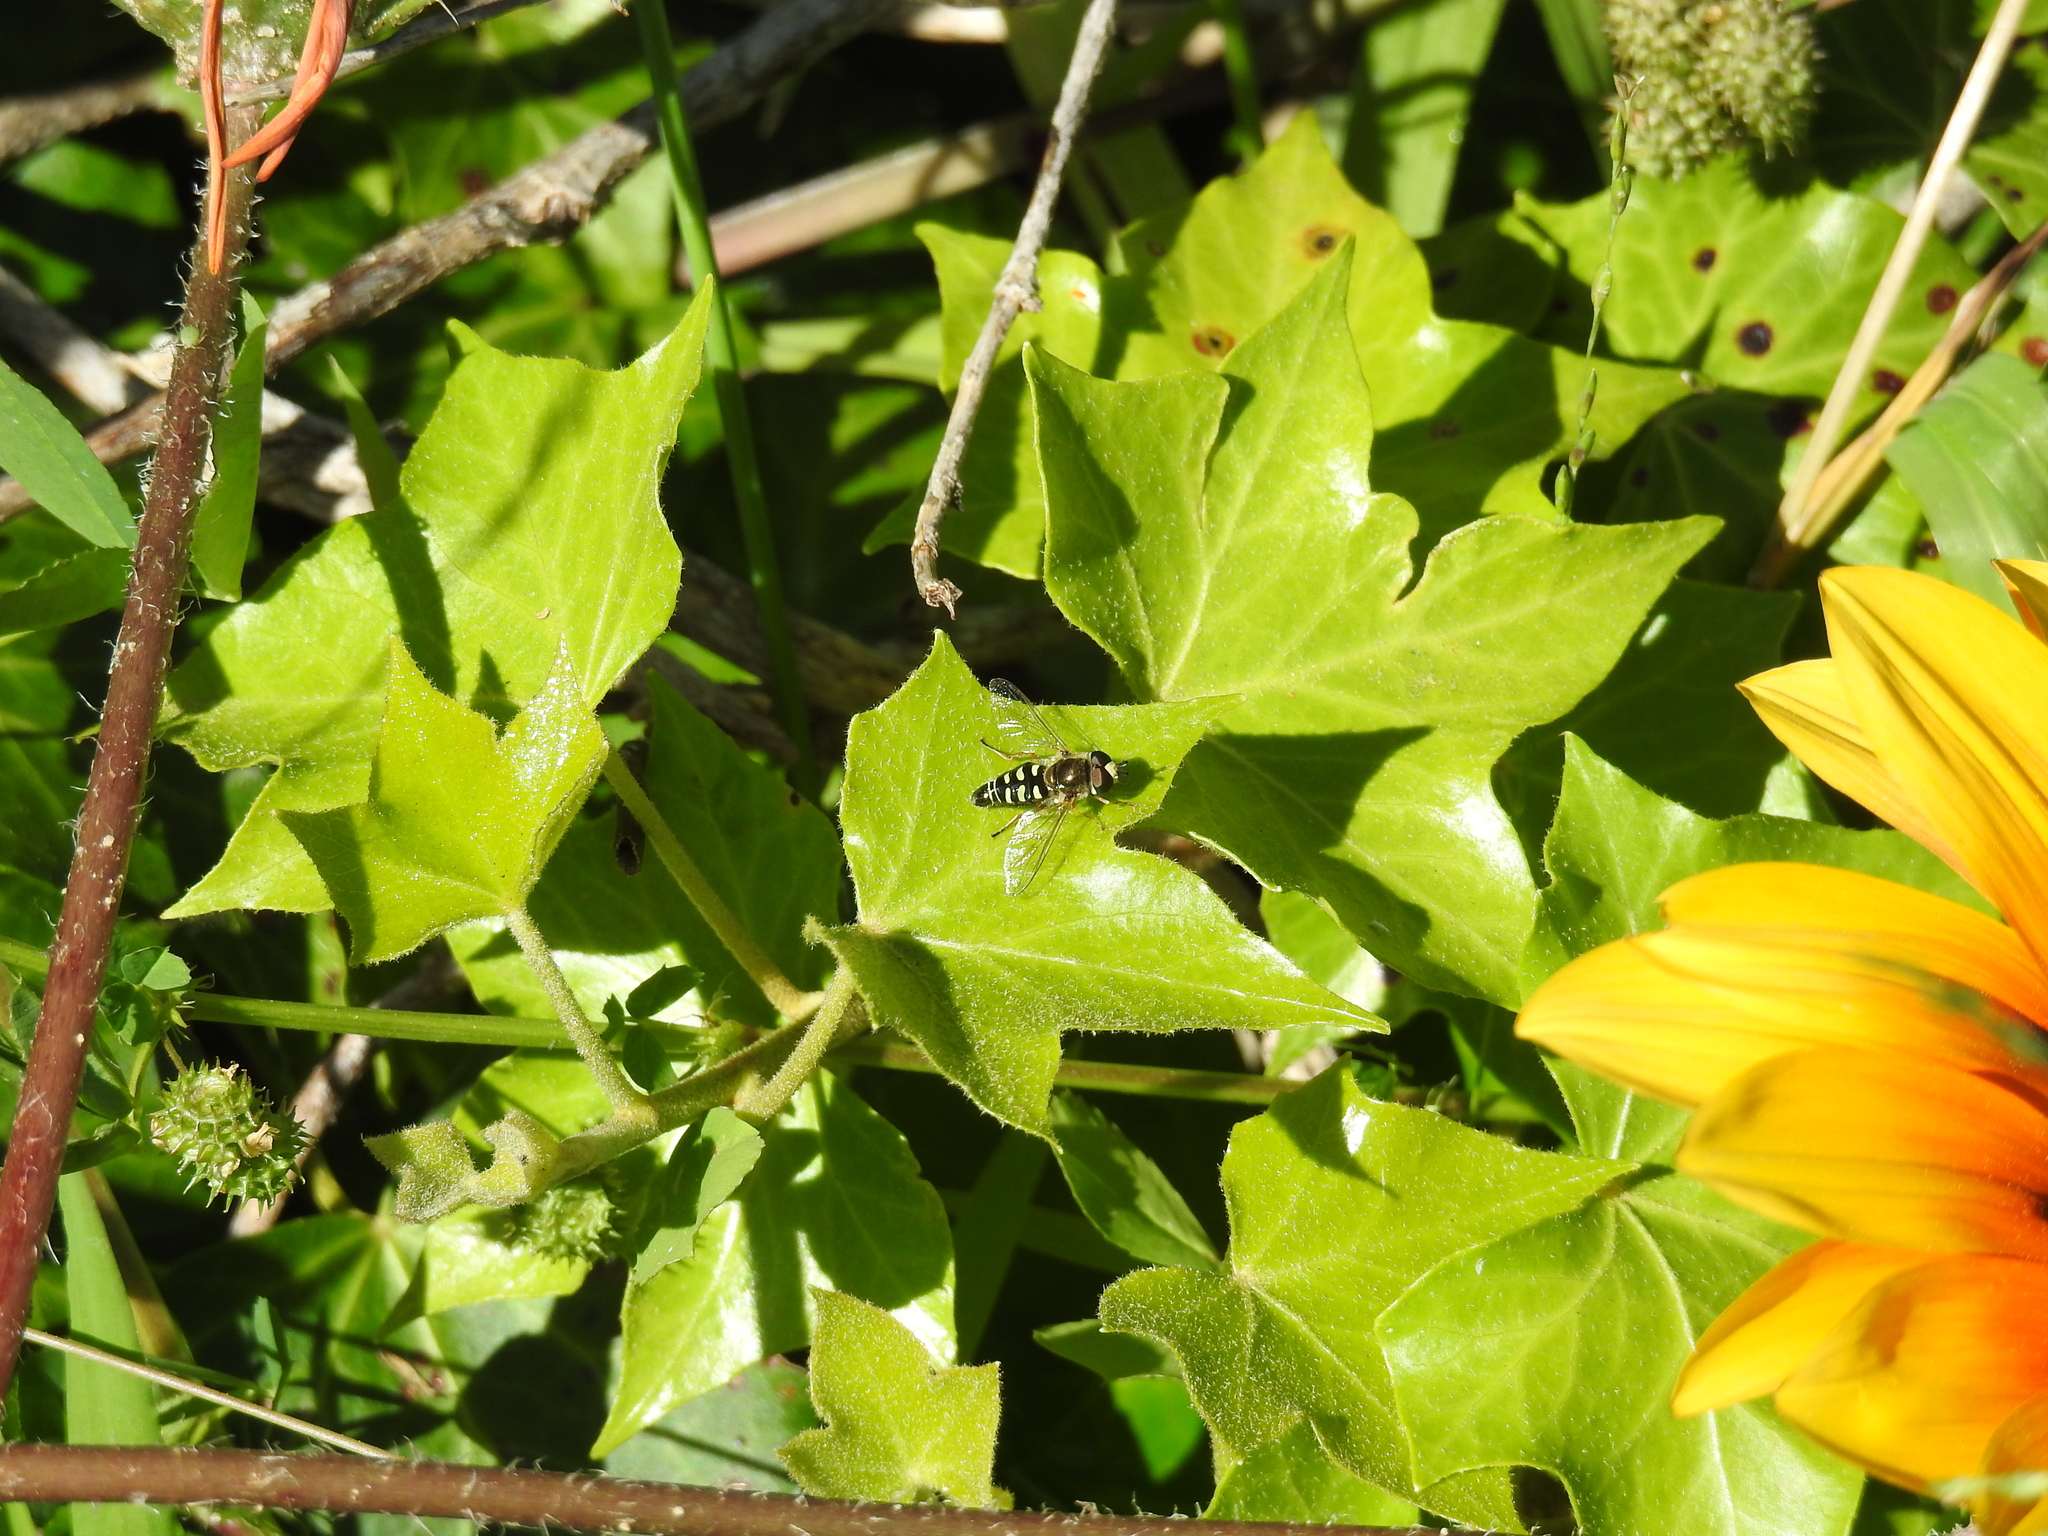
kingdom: Animalia
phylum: Arthropoda
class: Insecta
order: Diptera
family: Syrphidae
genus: Eupeodes
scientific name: Eupeodes volucris
